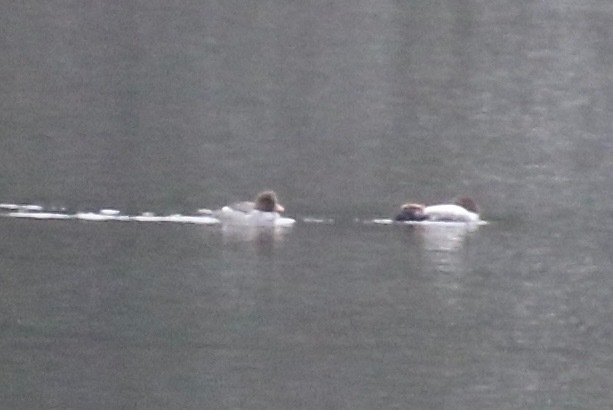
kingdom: Animalia
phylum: Chordata
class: Aves
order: Anseriformes
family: Anatidae
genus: Bucephala
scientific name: Bucephala islandica
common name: Barrow's goldeneye
